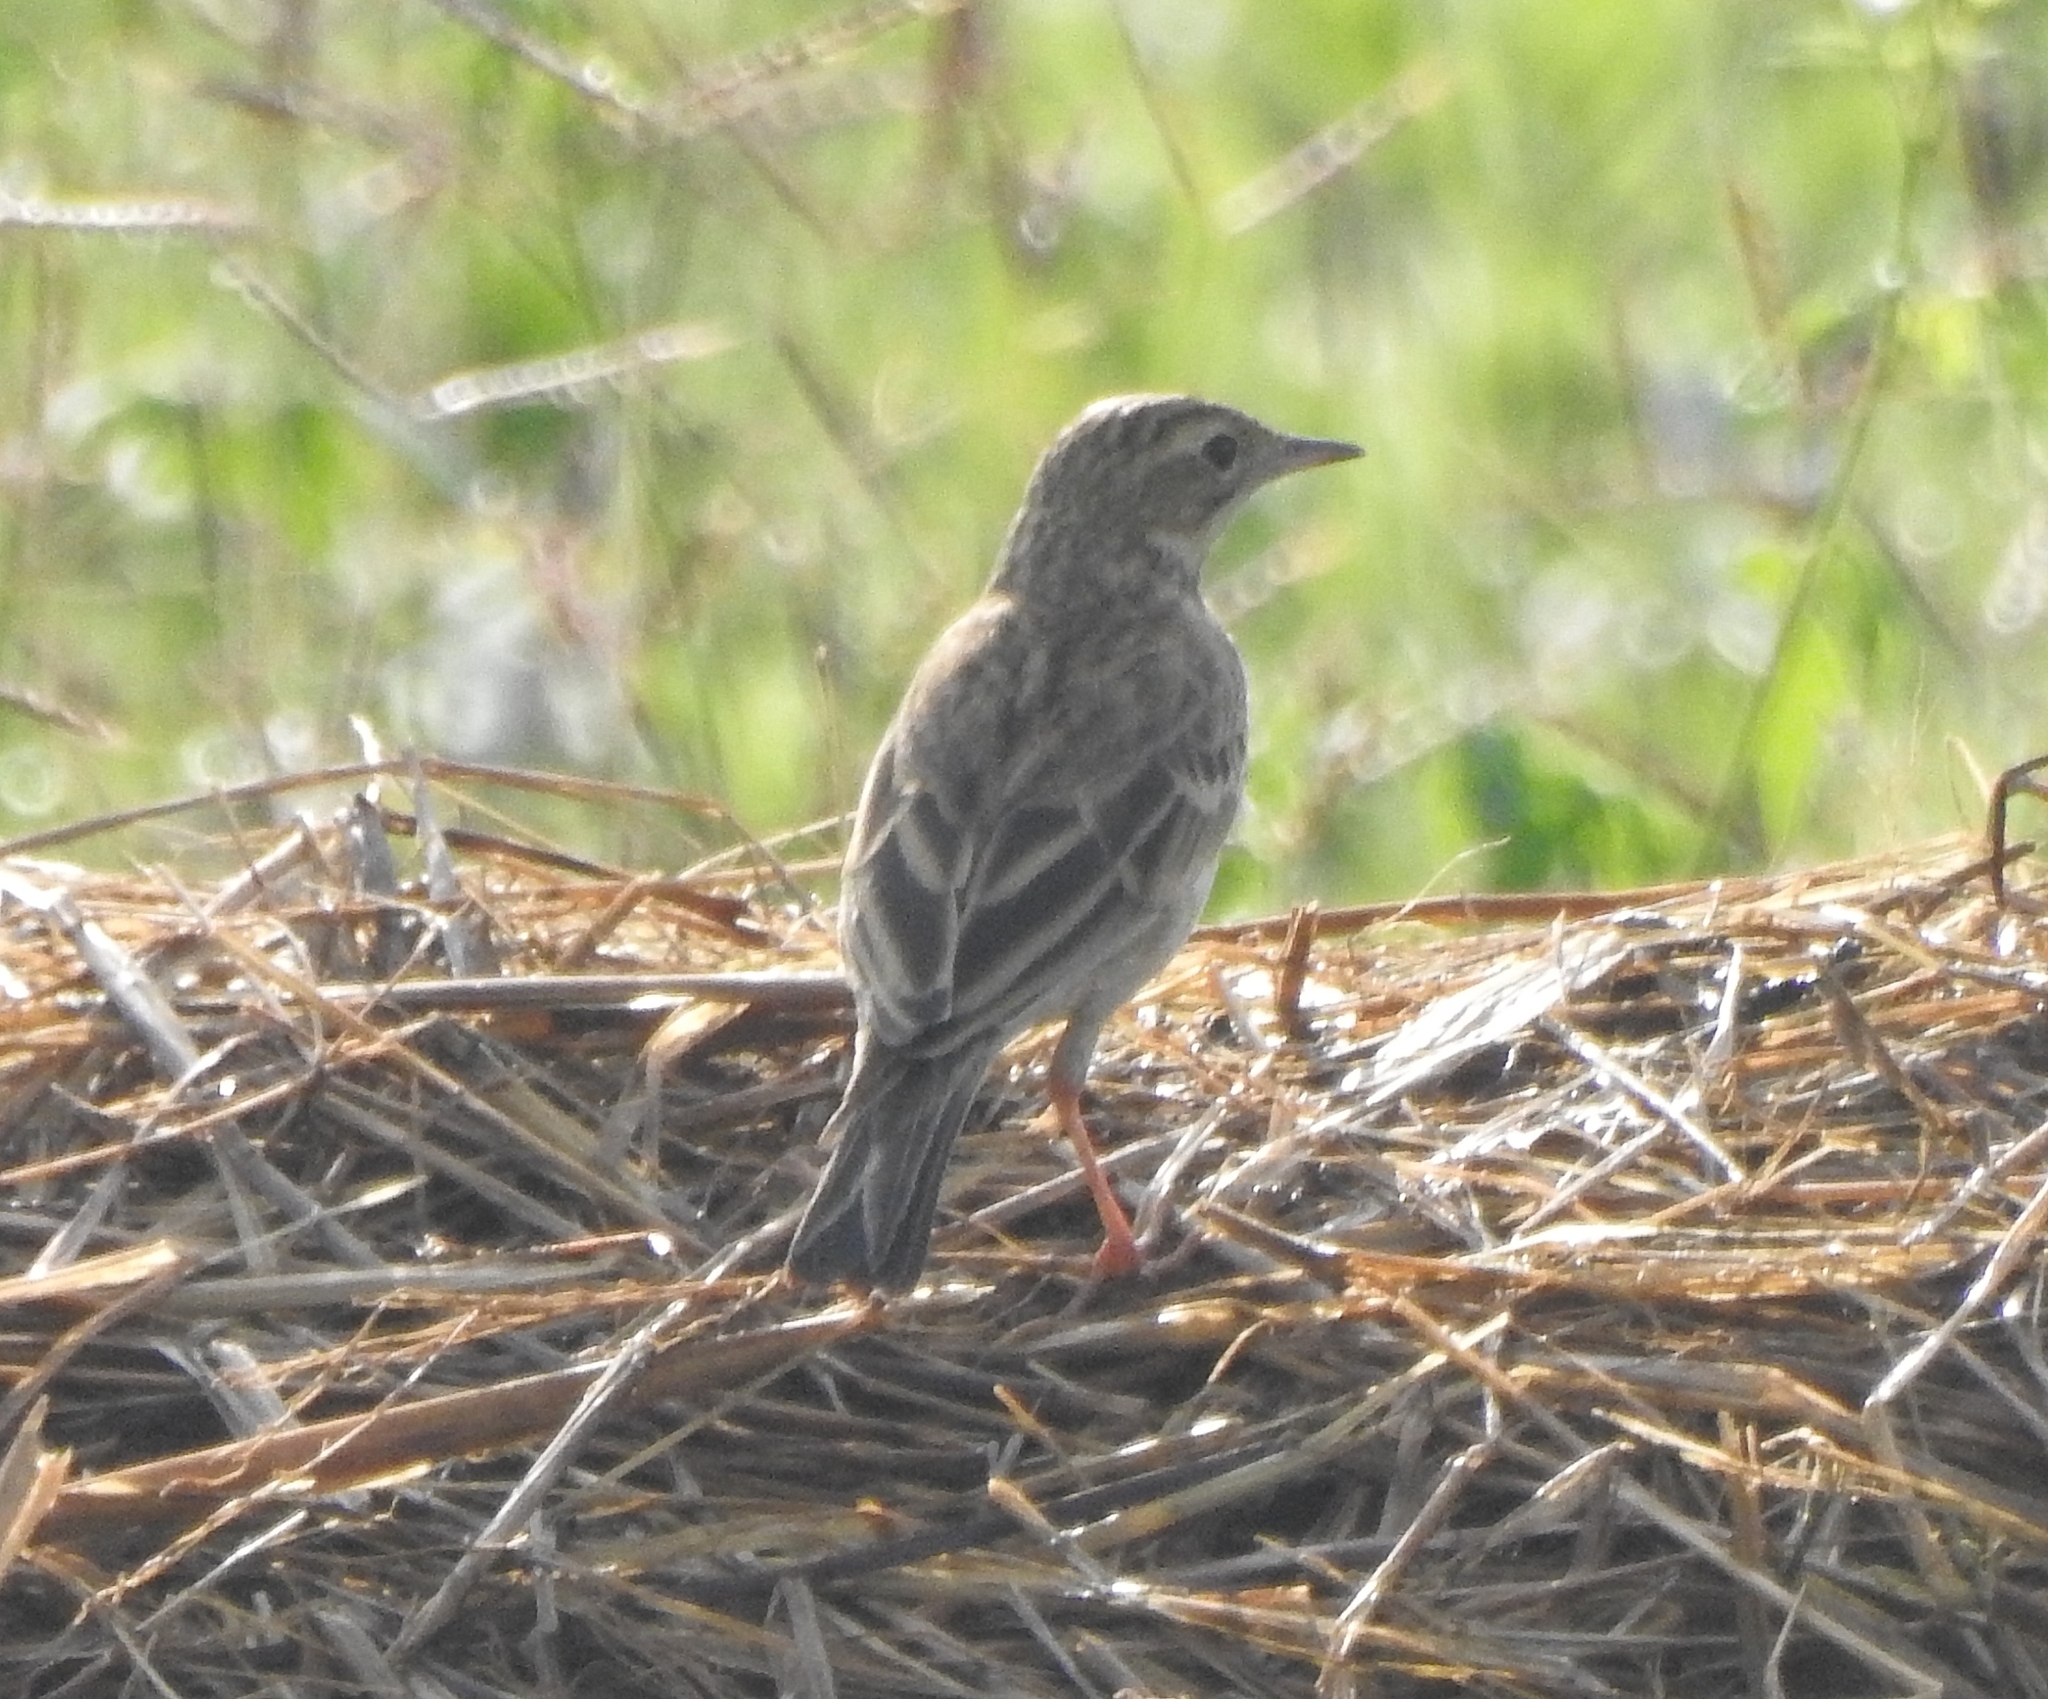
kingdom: Animalia
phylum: Chordata
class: Aves
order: Passeriformes
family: Motacillidae
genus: Anthus
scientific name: Anthus rufulus
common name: Paddyfield pipit
